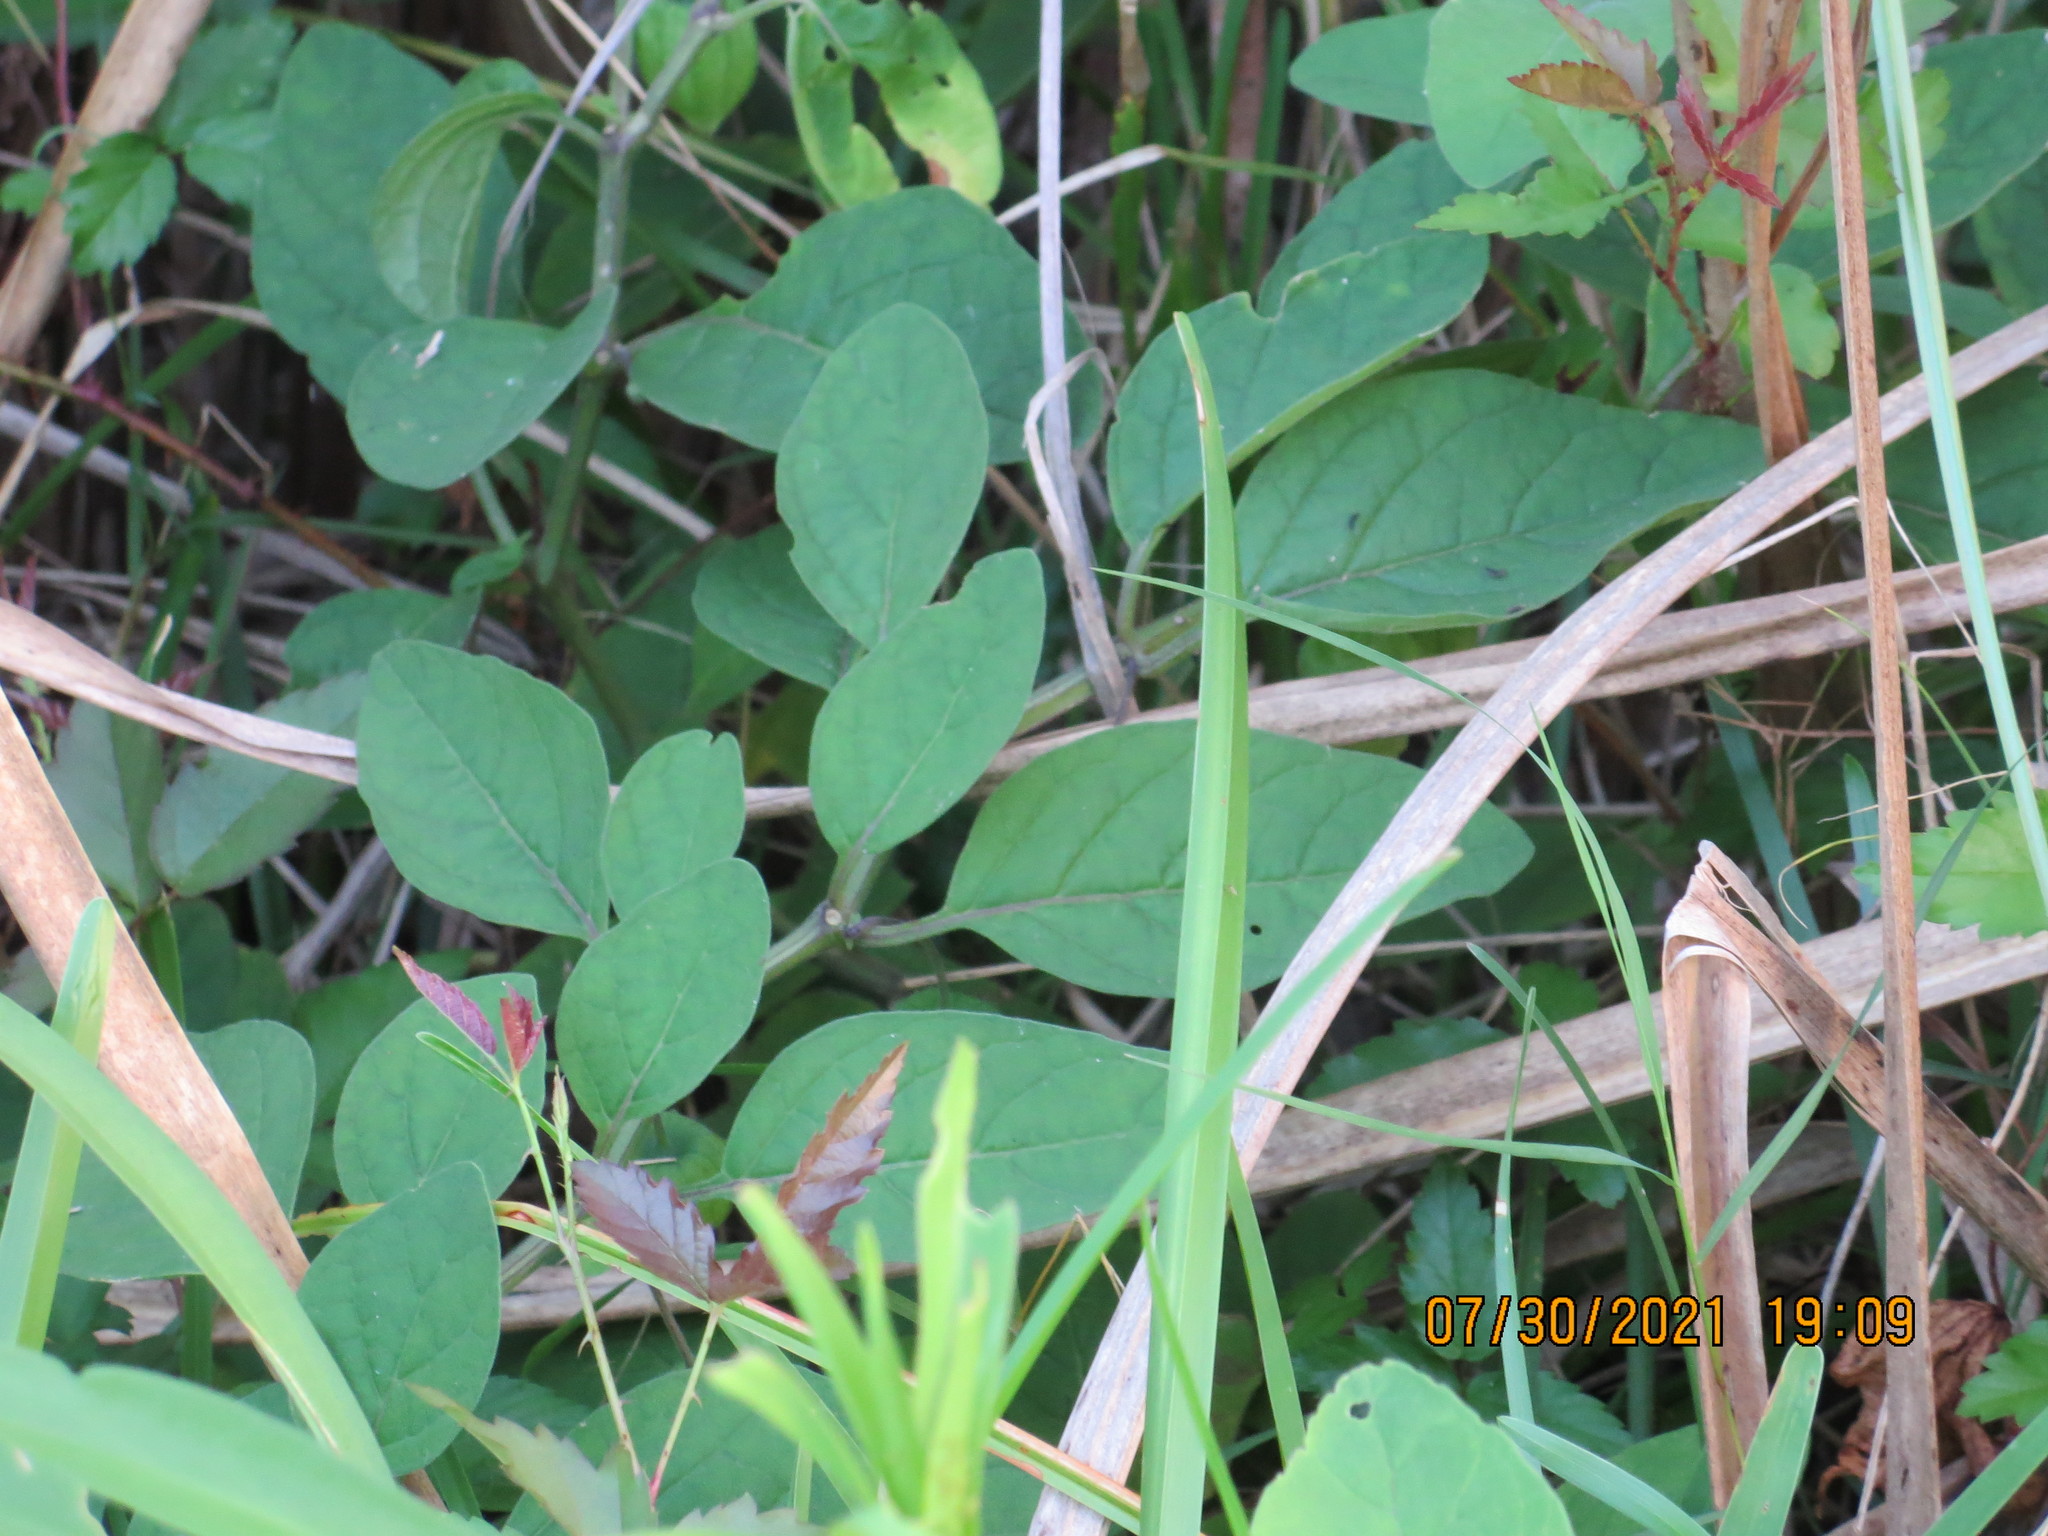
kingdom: Plantae
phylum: Tracheophyta
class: Magnoliopsida
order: Solanales
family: Solanaceae
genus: Physalis
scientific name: Physalis walteri
